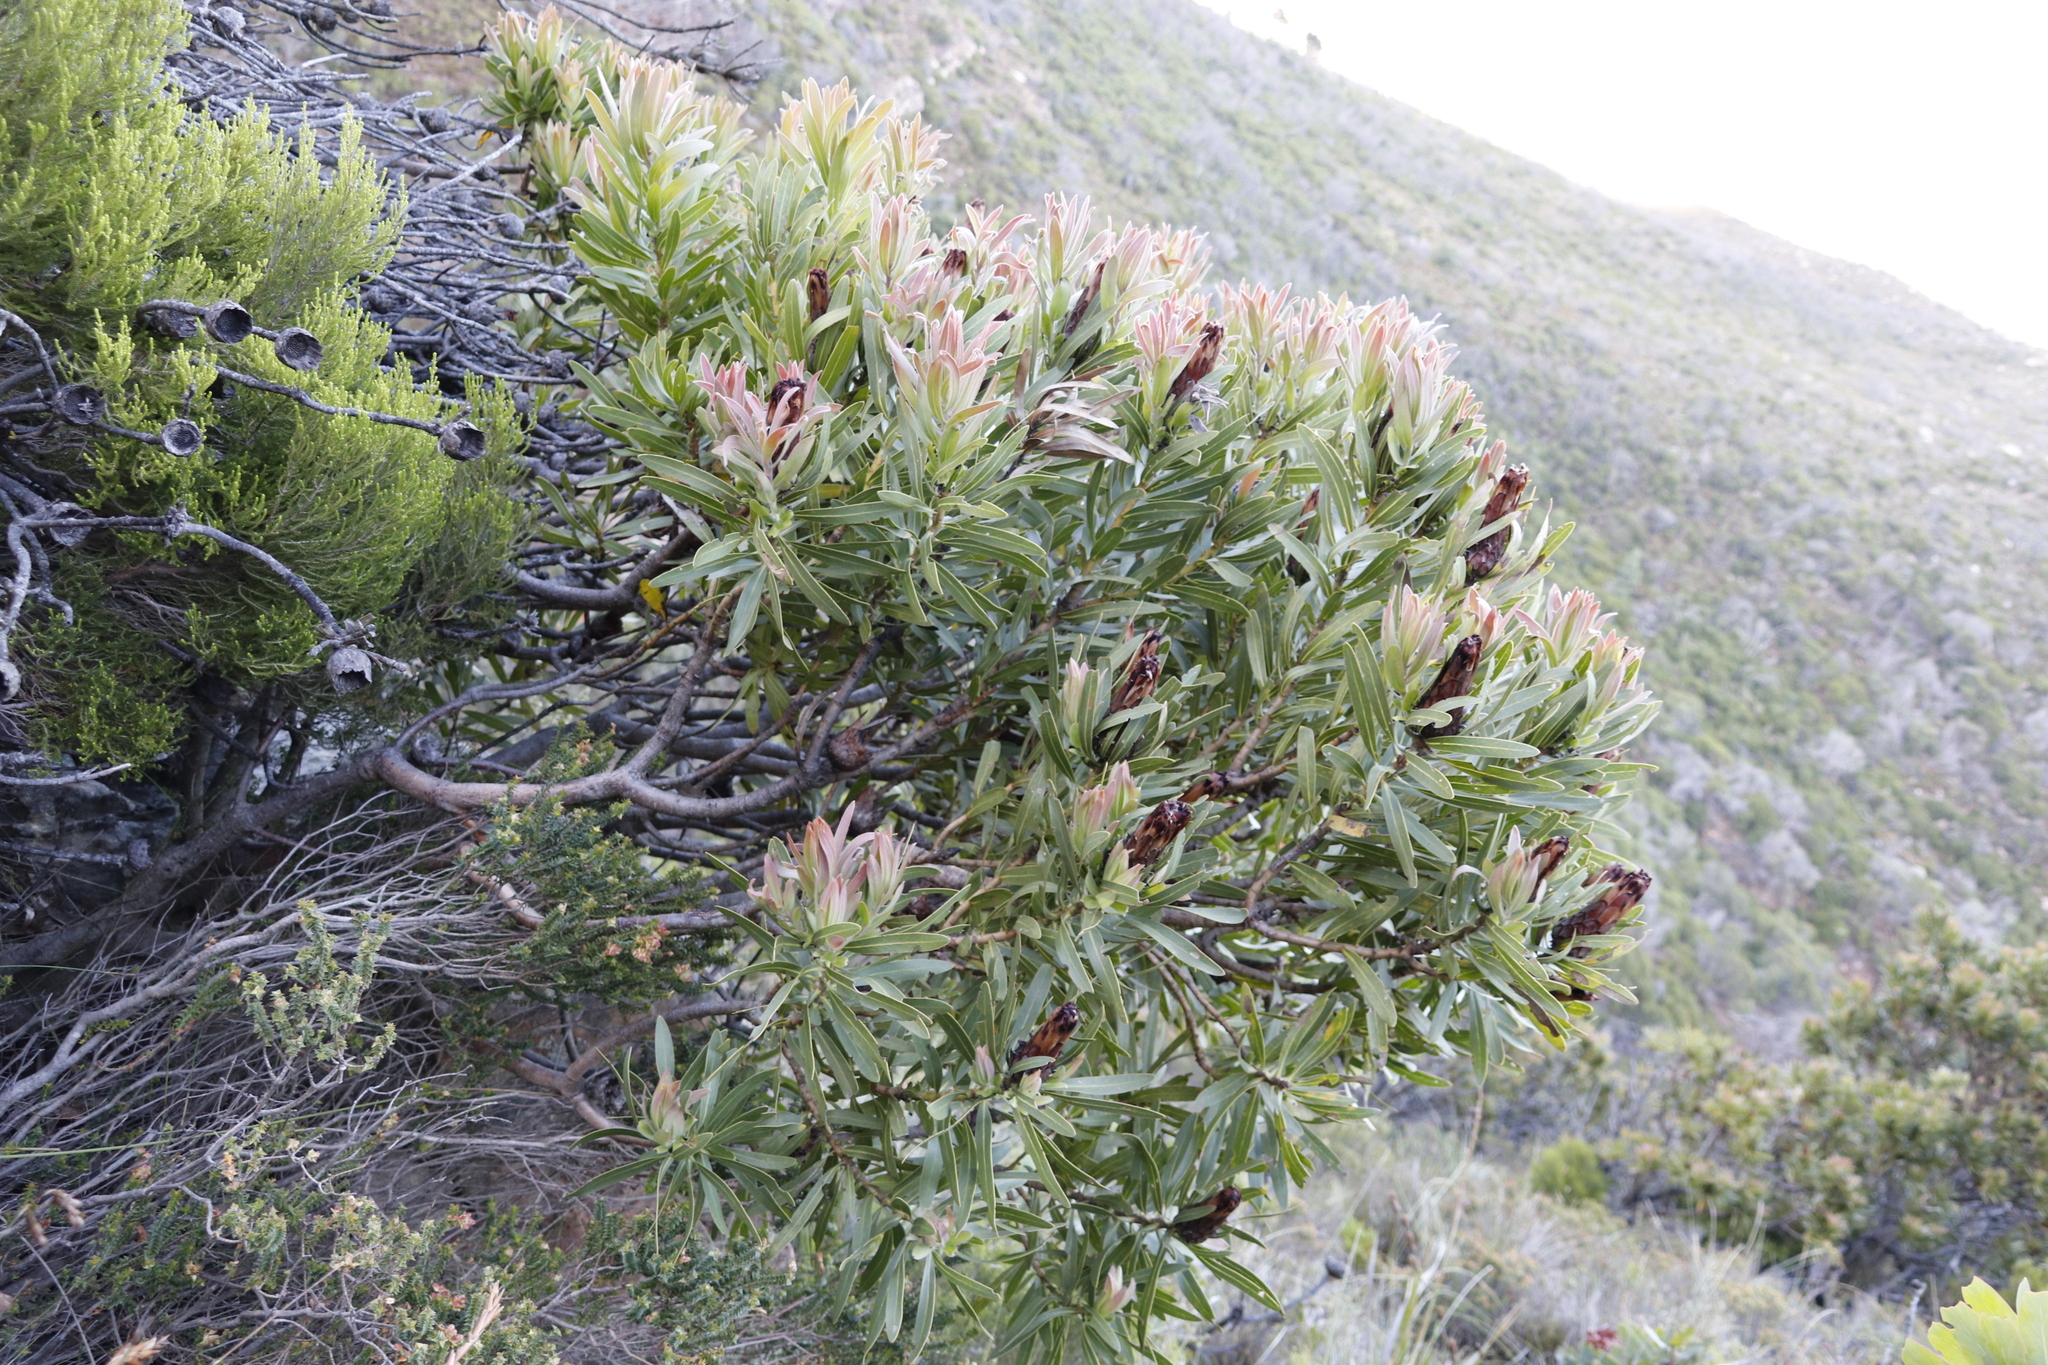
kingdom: Plantae
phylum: Tracheophyta
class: Magnoliopsida
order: Proteales
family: Proteaceae
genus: Protea
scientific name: Protea lepidocarpodendron
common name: Black-bearded protea
